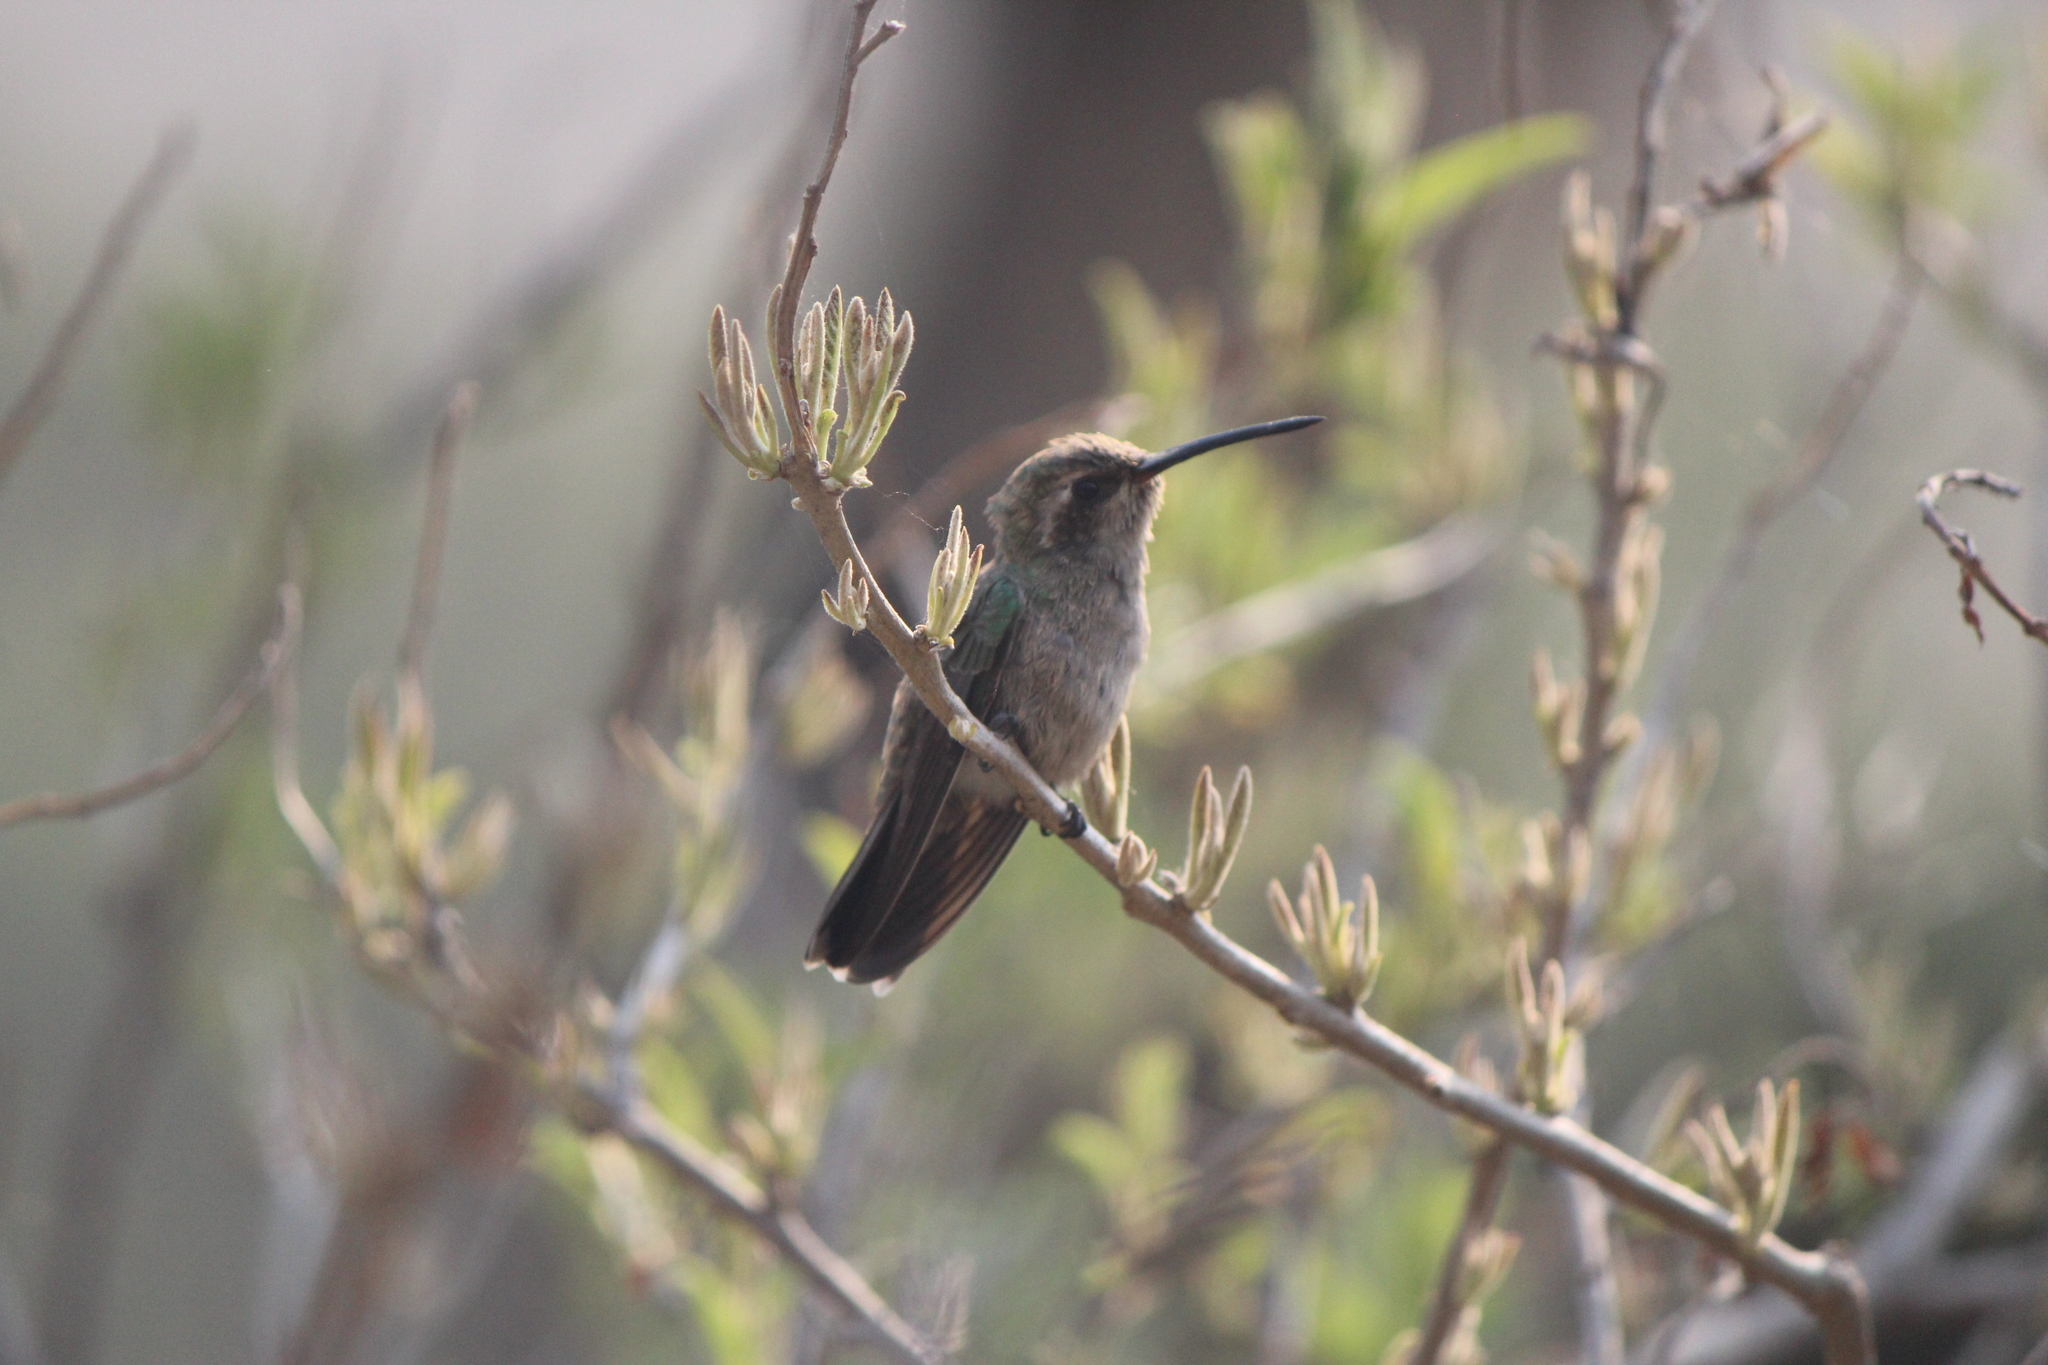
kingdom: Animalia
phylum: Chordata
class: Aves
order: Apodiformes
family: Trochilidae
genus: Cynanthus
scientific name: Cynanthus latirostris
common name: Broad-billed hummingbird
